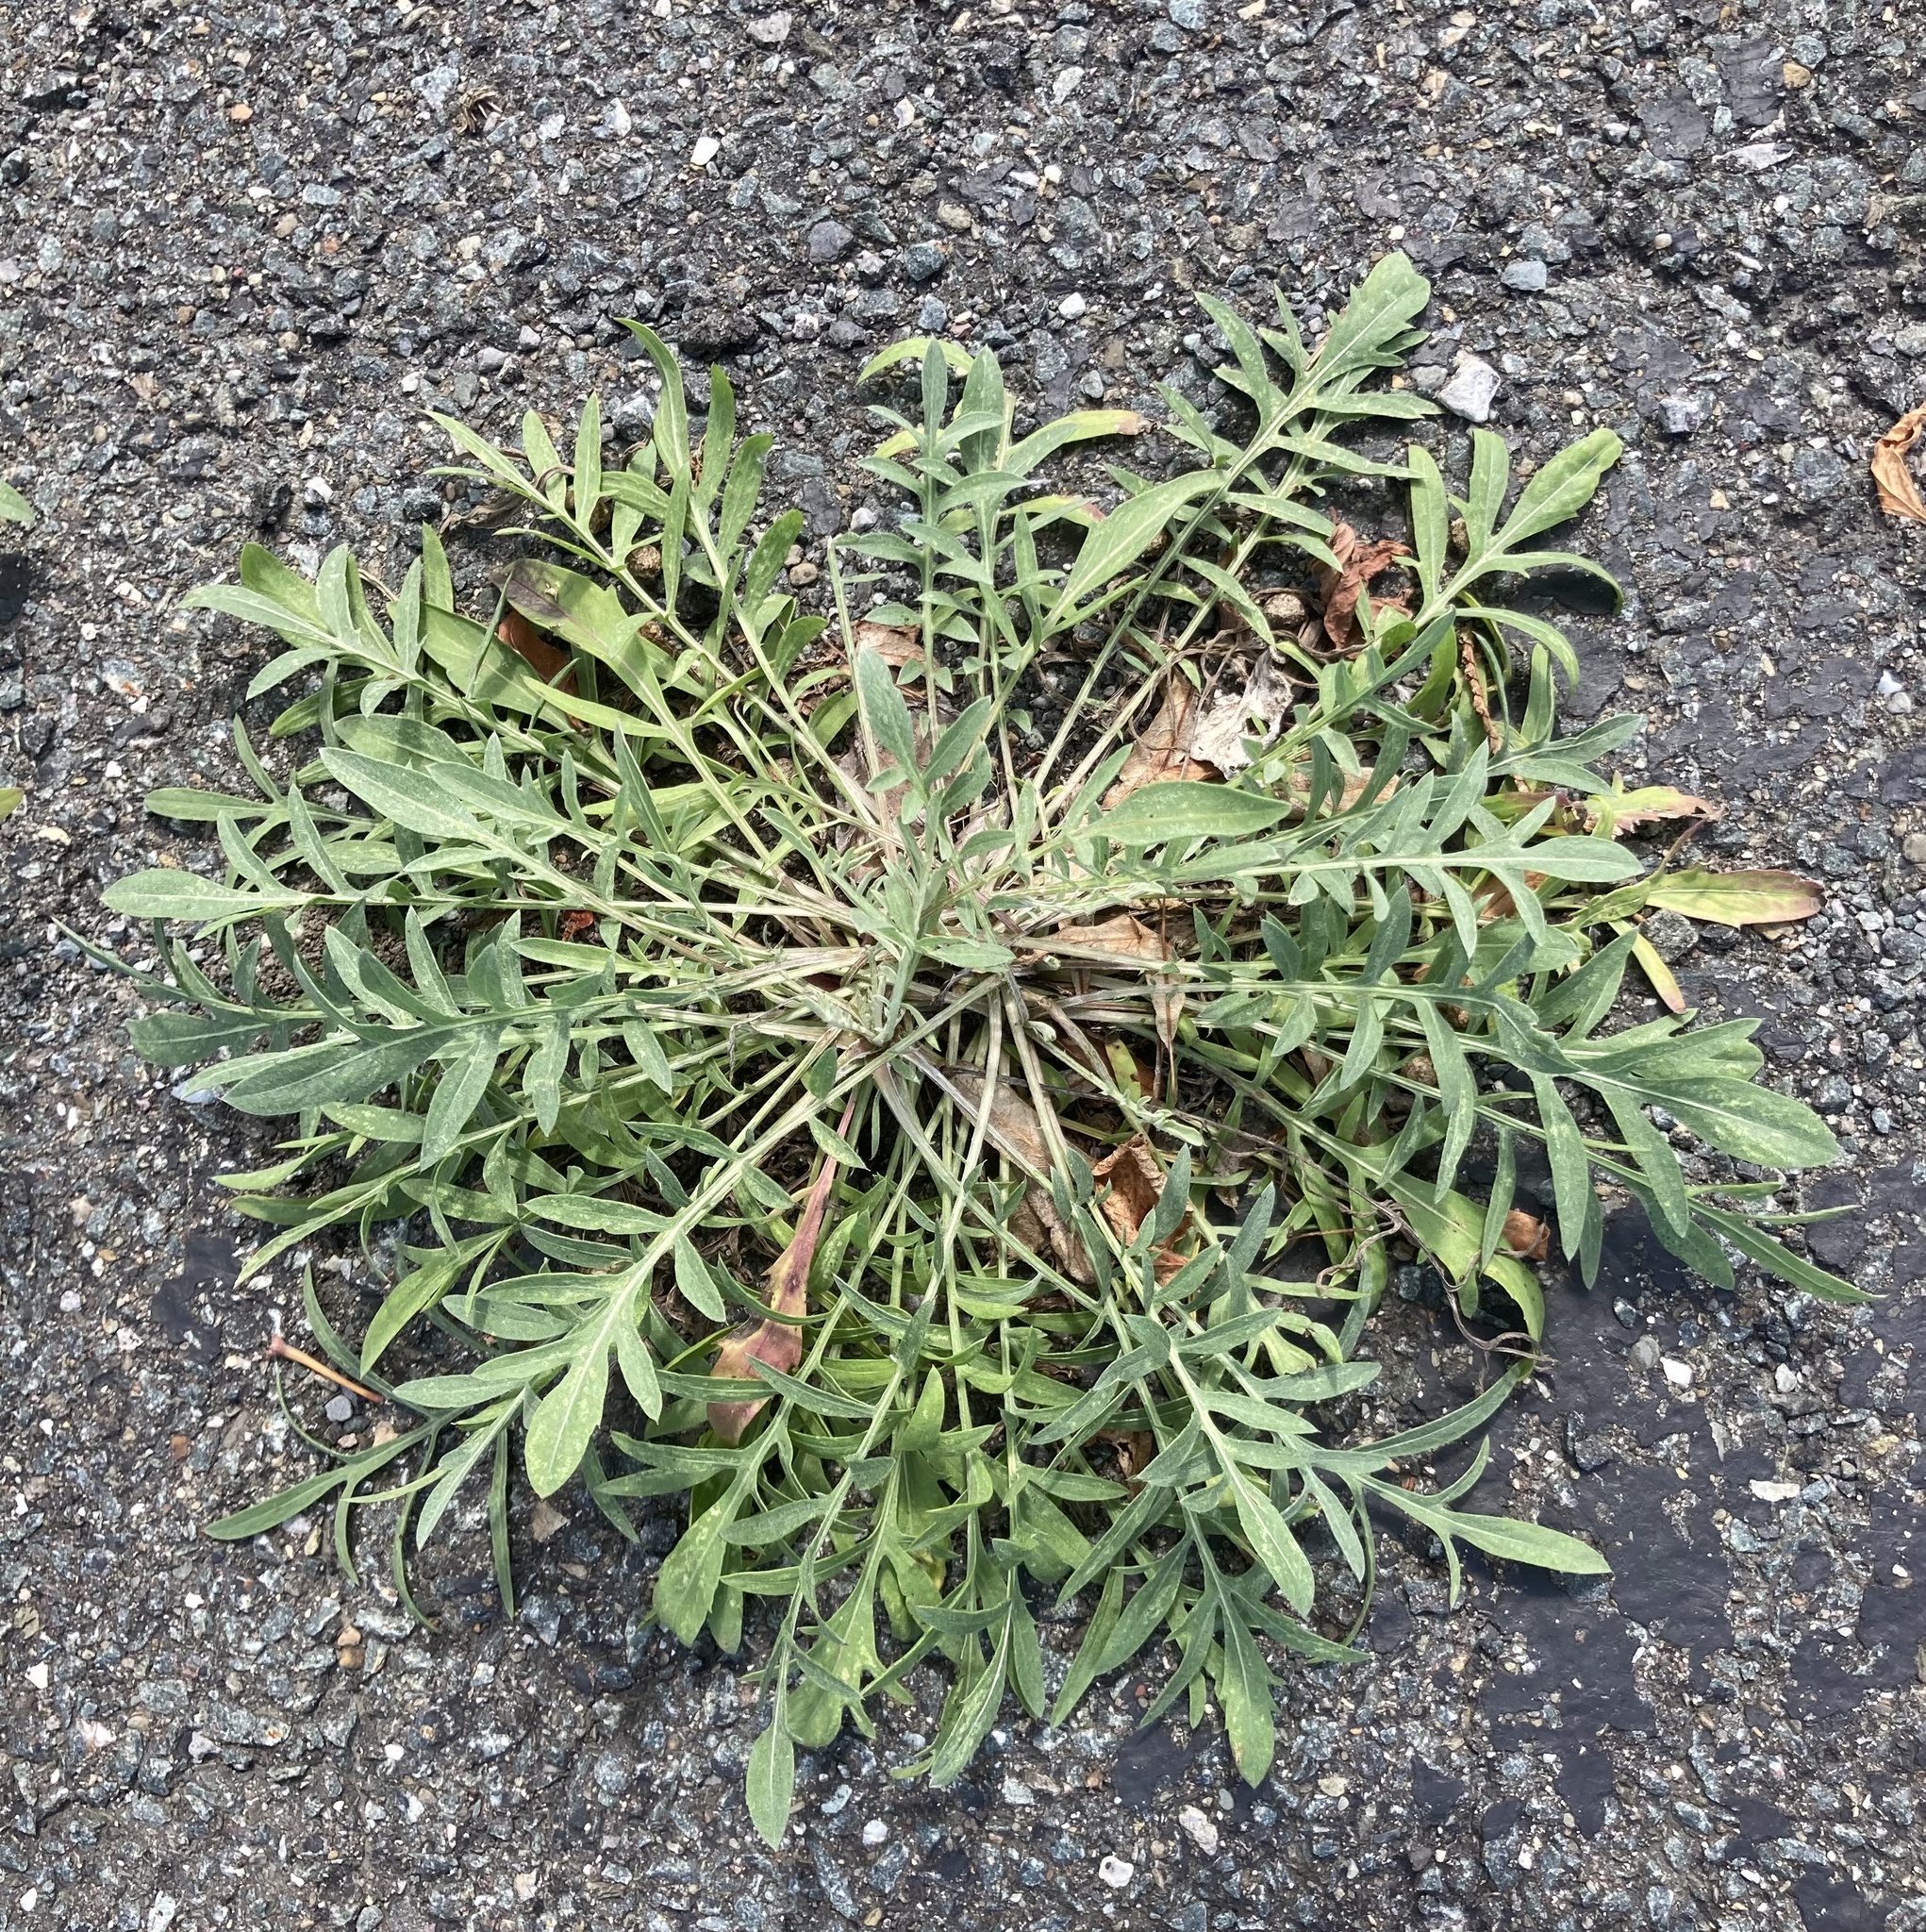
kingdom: Plantae
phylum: Tracheophyta
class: Magnoliopsida
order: Asterales
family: Asteraceae
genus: Centaurea
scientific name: Centaurea australis
